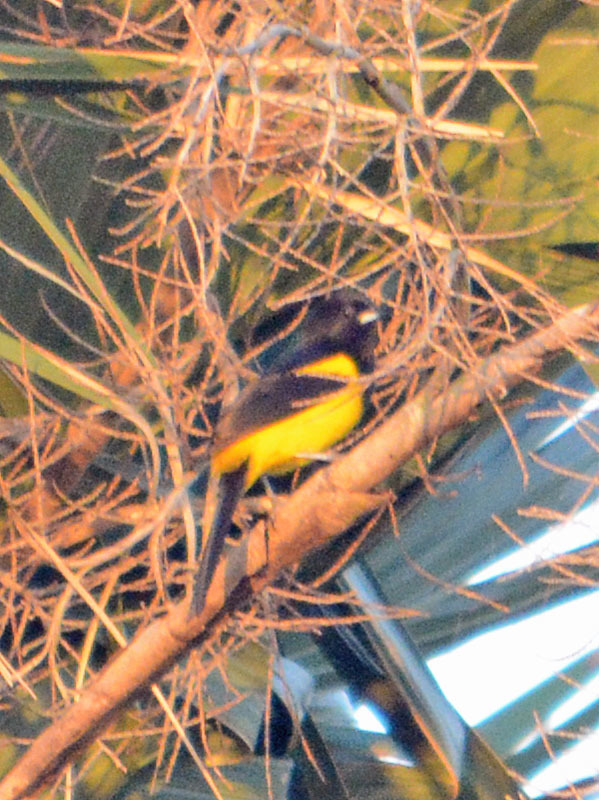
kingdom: Animalia
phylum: Chordata
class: Aves
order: Passeriformes
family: Icteridae
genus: Icterus
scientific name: Icterus prosthemelas
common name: Black-cowled oriole
